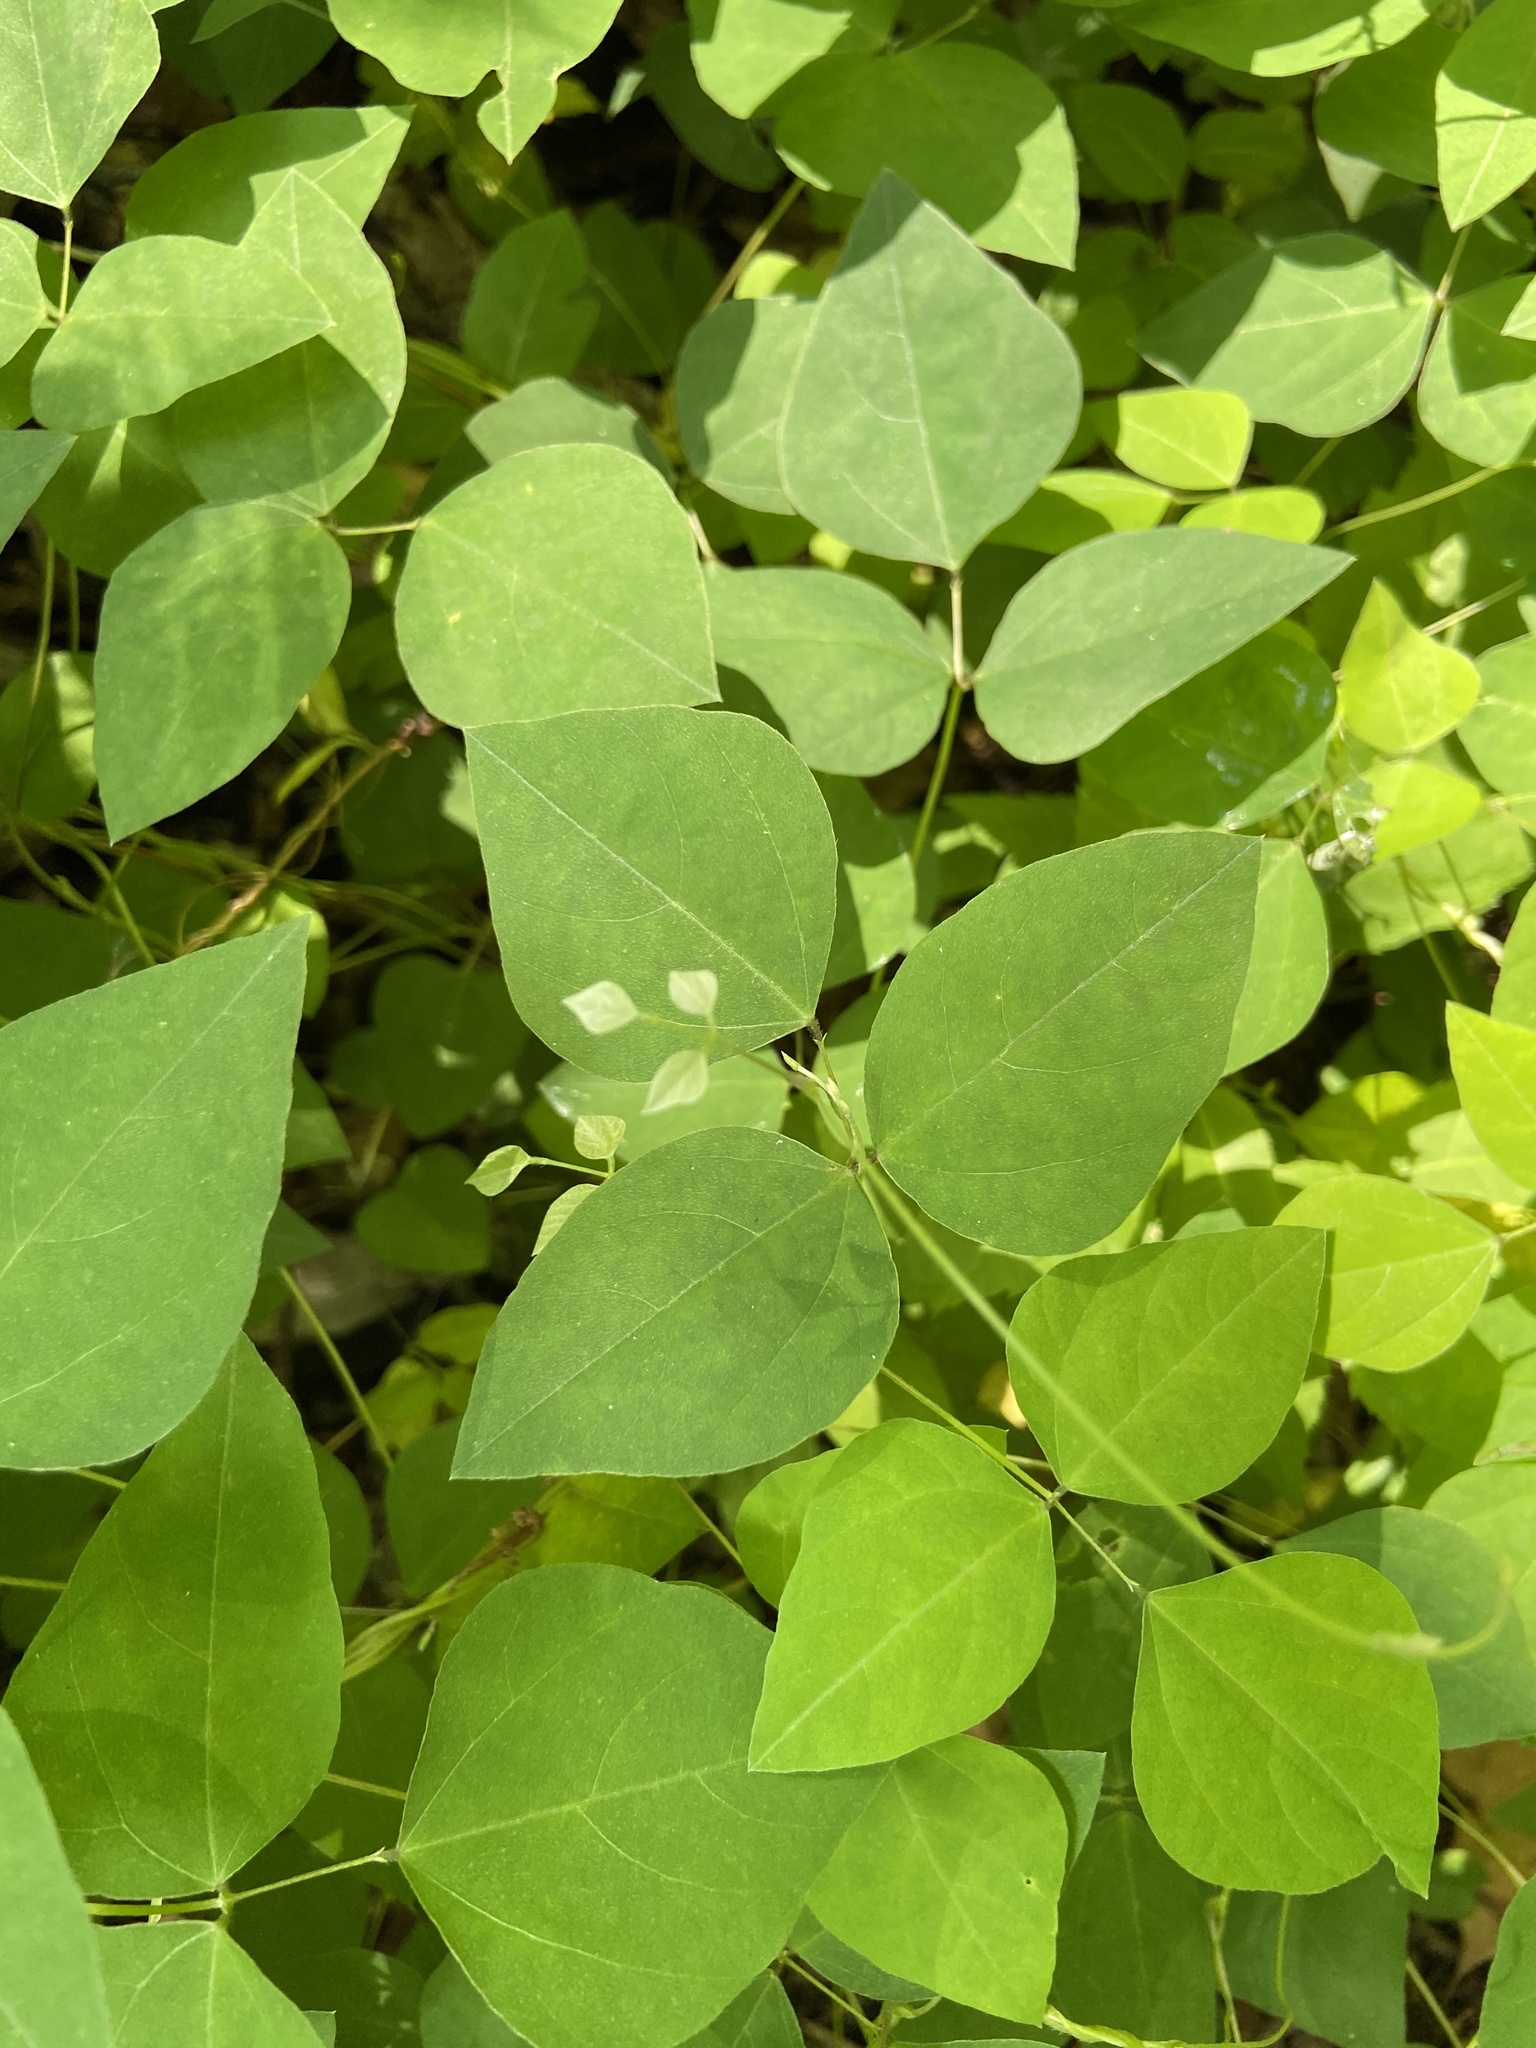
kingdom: Plantae
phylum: Tracheophyta
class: Magnoliopsida
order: Fabales
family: Fabaceae
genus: Amphicarpaea
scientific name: Amphicarpaea bracteata
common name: American hog peanut
